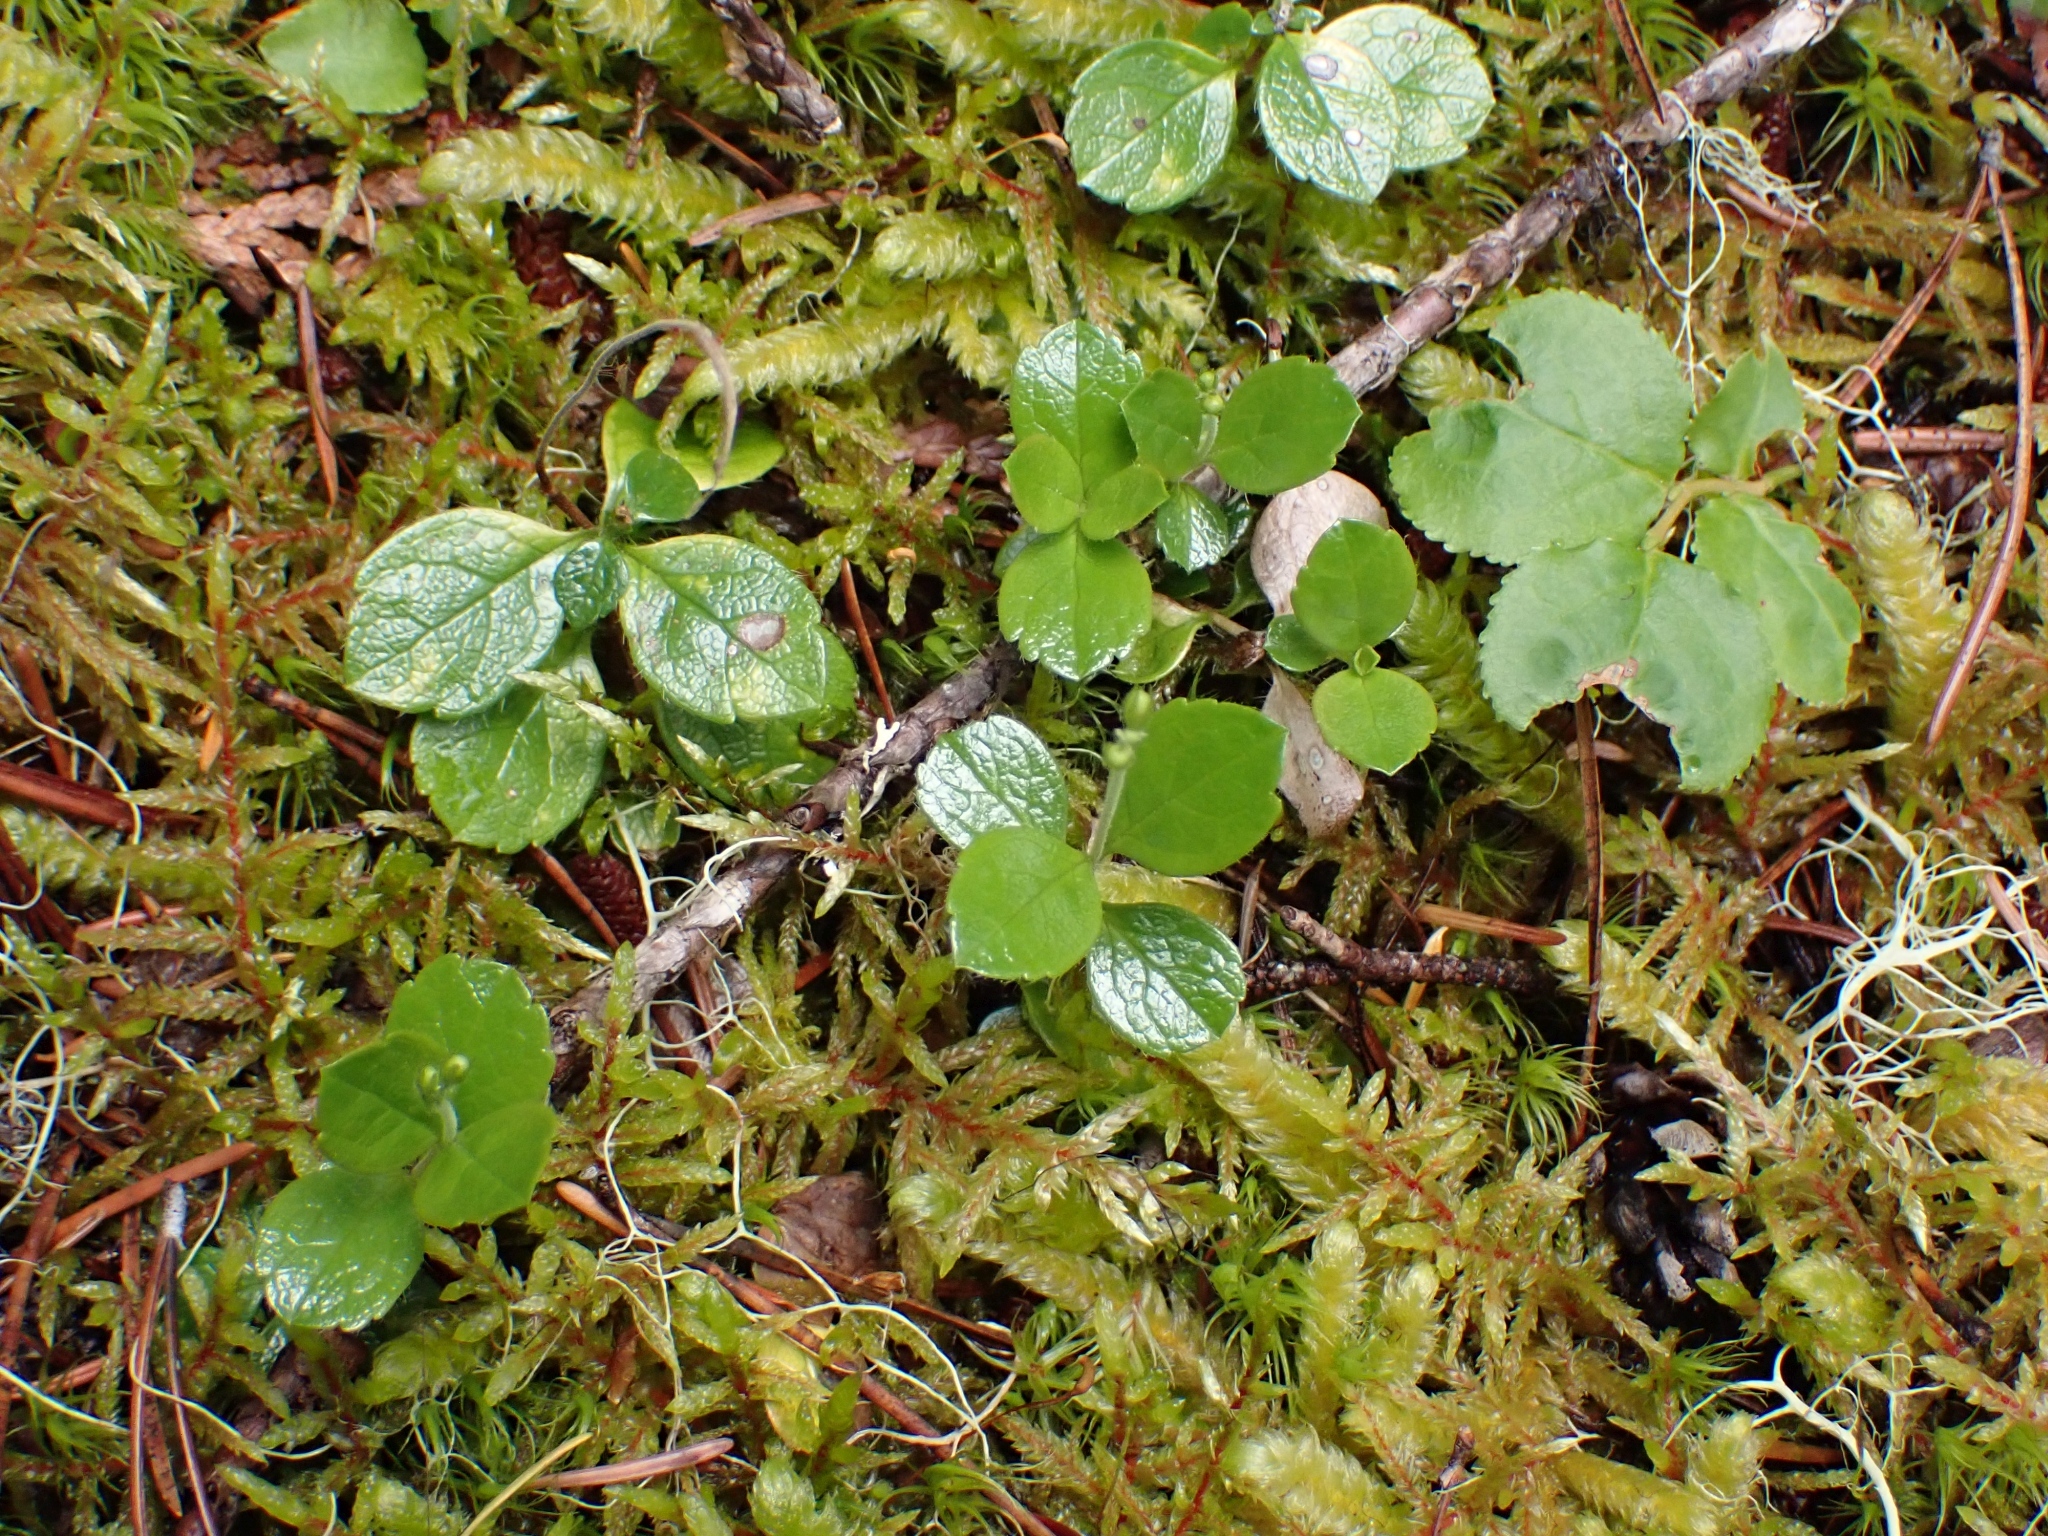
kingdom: Plantae
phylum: Tracheophyta
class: Magnoliopsida
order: Dipsacales
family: Caprifoliaceae
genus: Linnaea
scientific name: Linnaea borealis
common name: Twinflower
